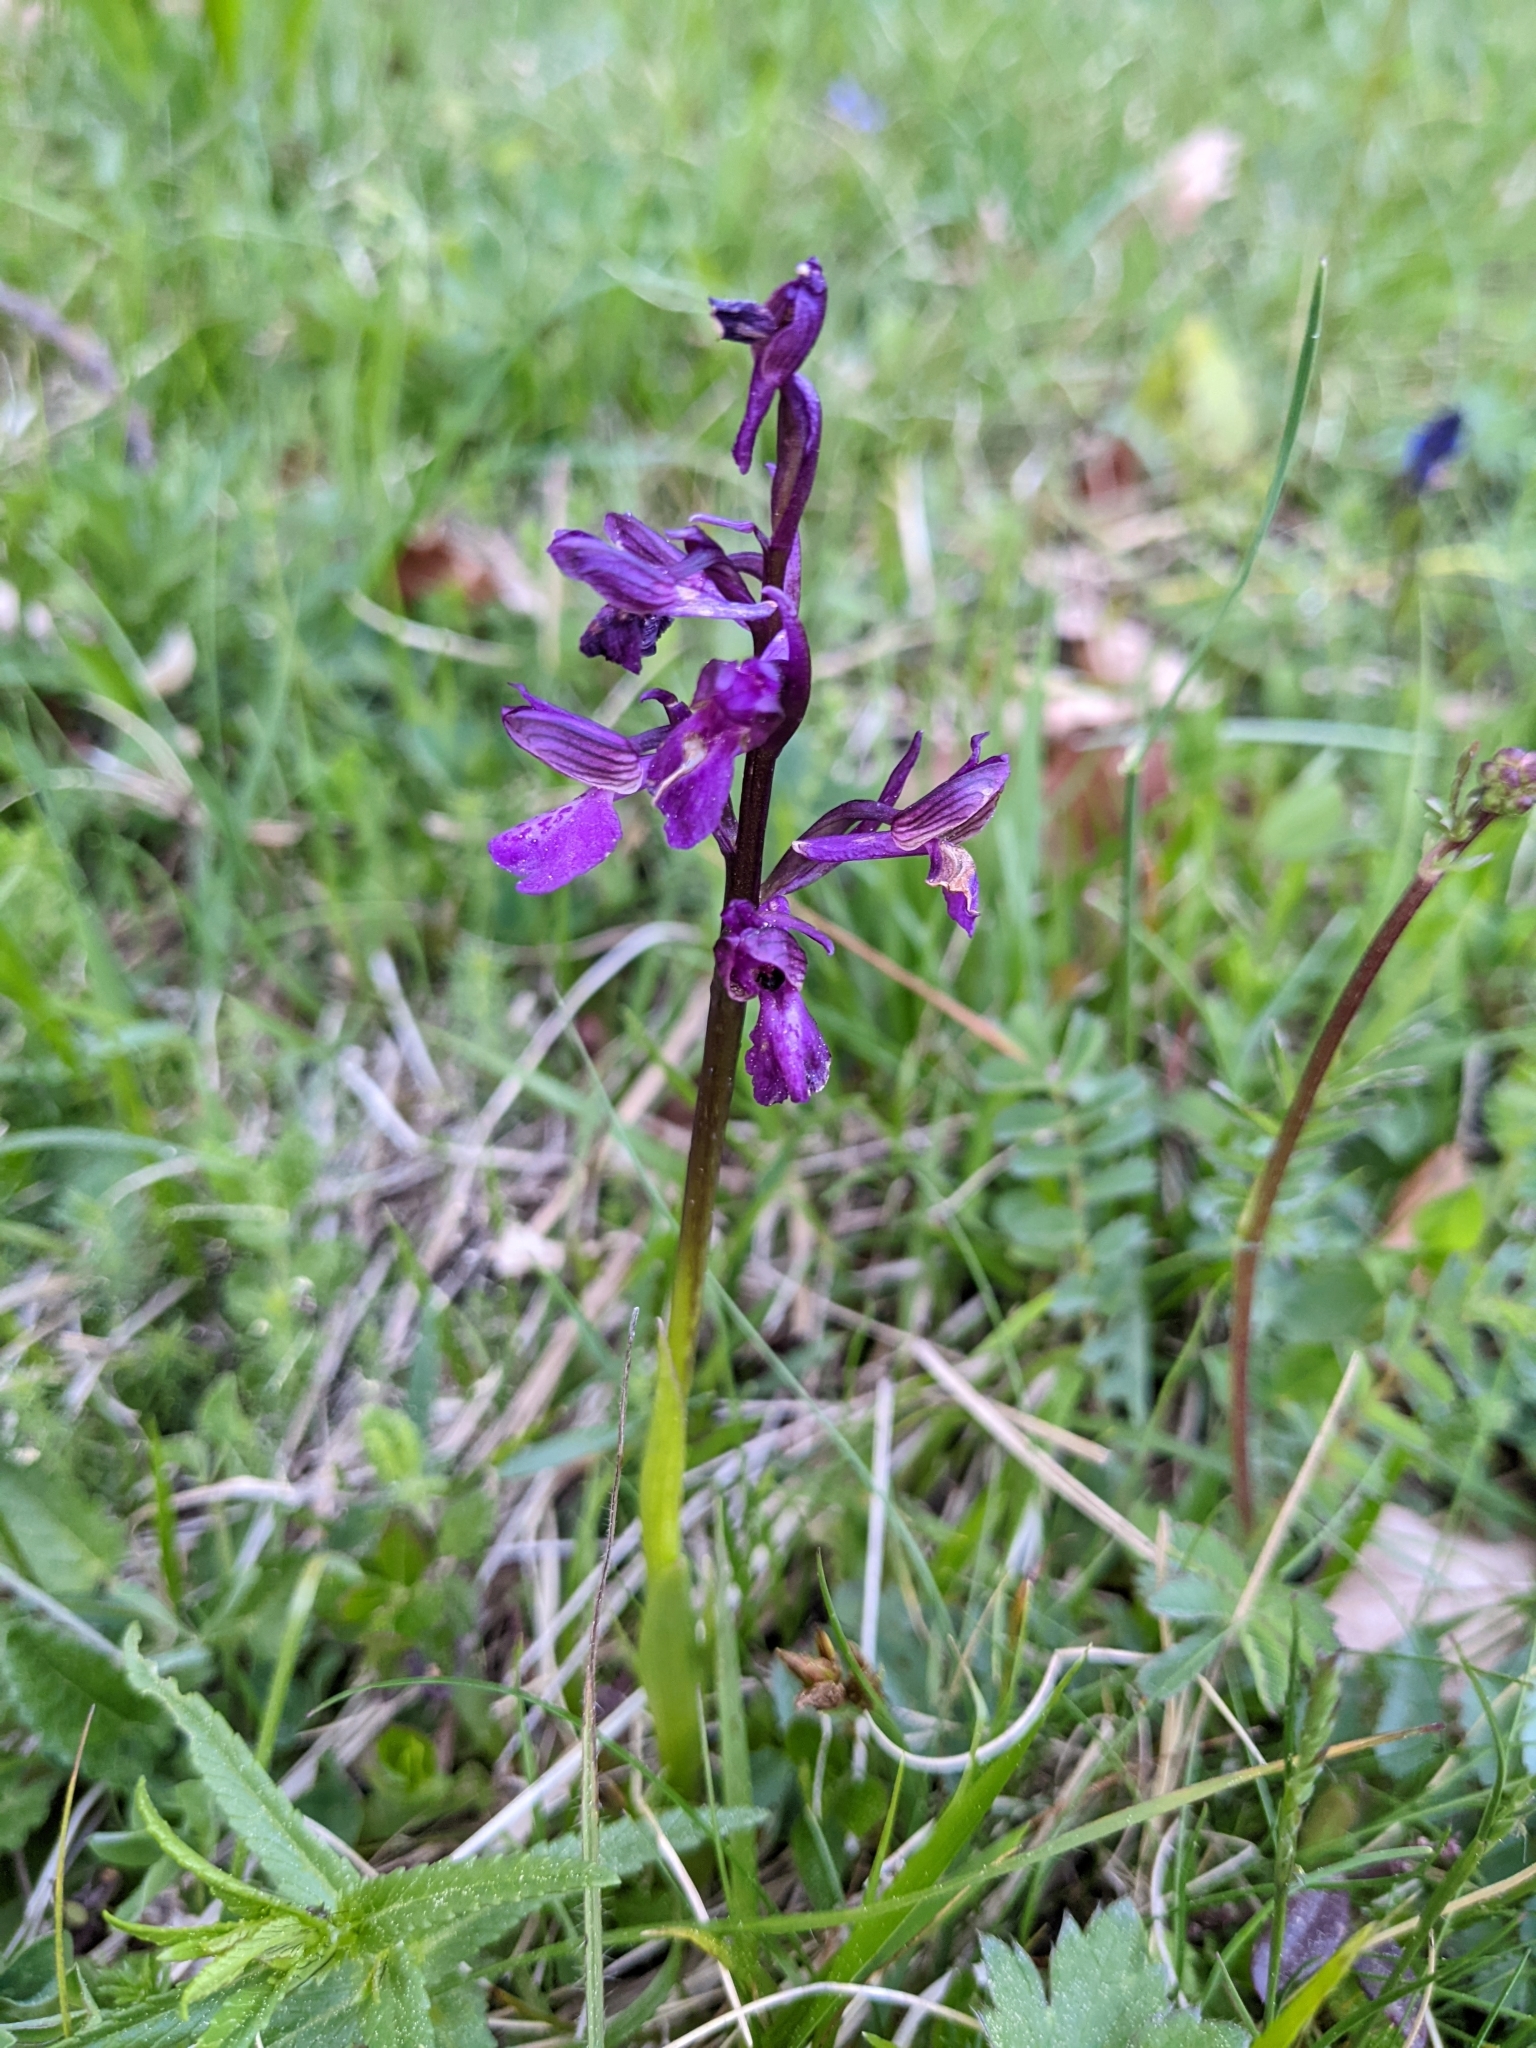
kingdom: Plantae
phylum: Tracheophyta
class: Liliopsida
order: Asparagales
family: Orchidaceae
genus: Anacamptis
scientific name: Anacamptis morio
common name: Green-winged orchid
